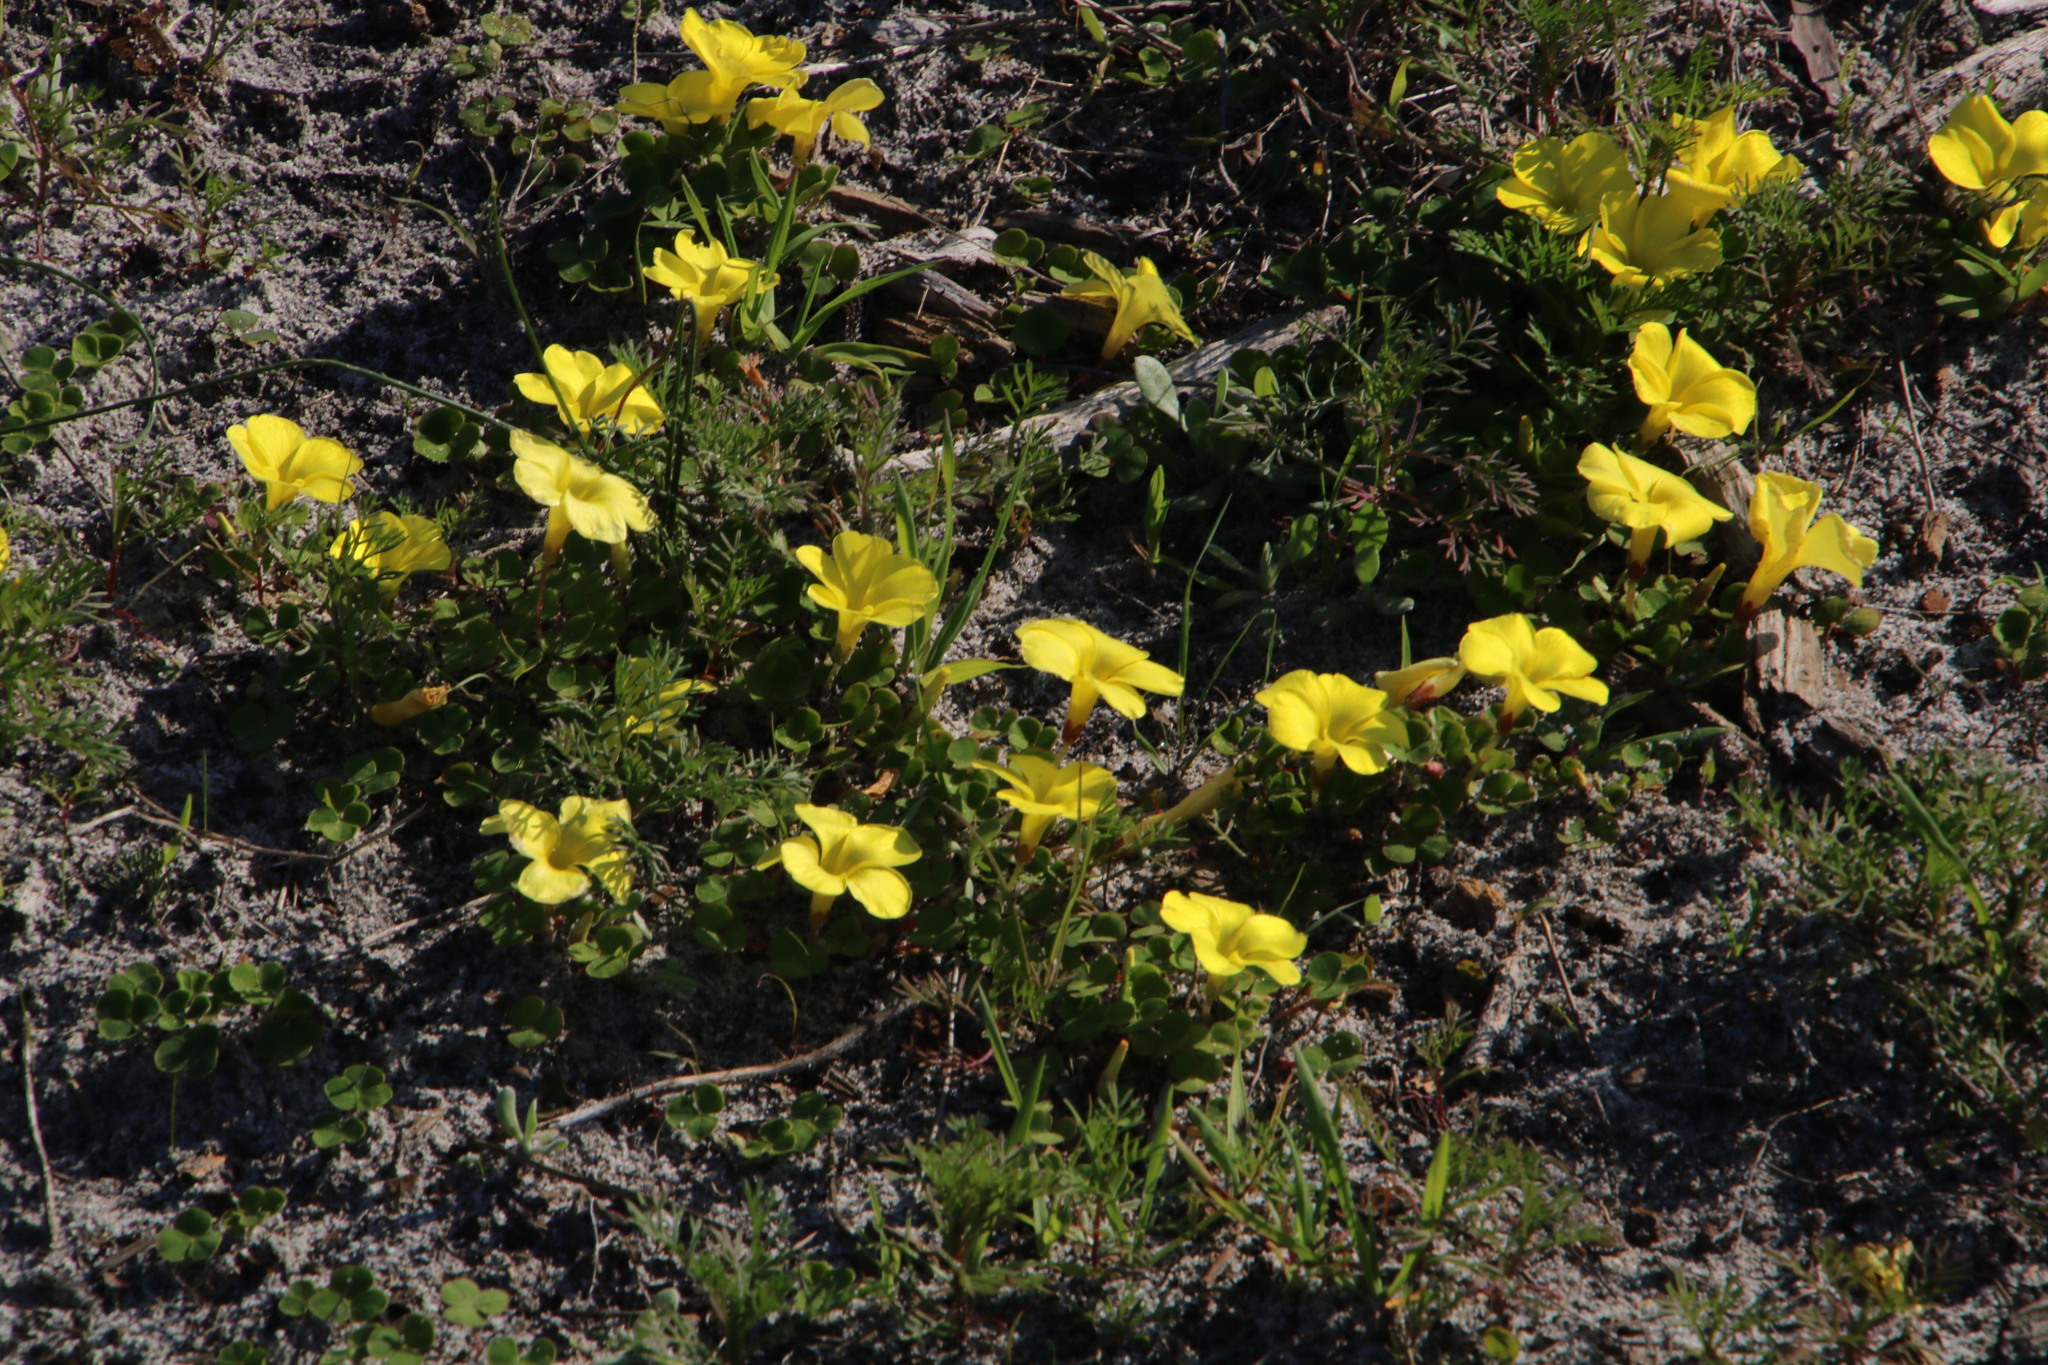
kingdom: Plantae
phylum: Tracheophyta
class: Magnoliopsida
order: Oxalidales
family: Oxalidaceae
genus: Oxalis
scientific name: Oxalis luteola
